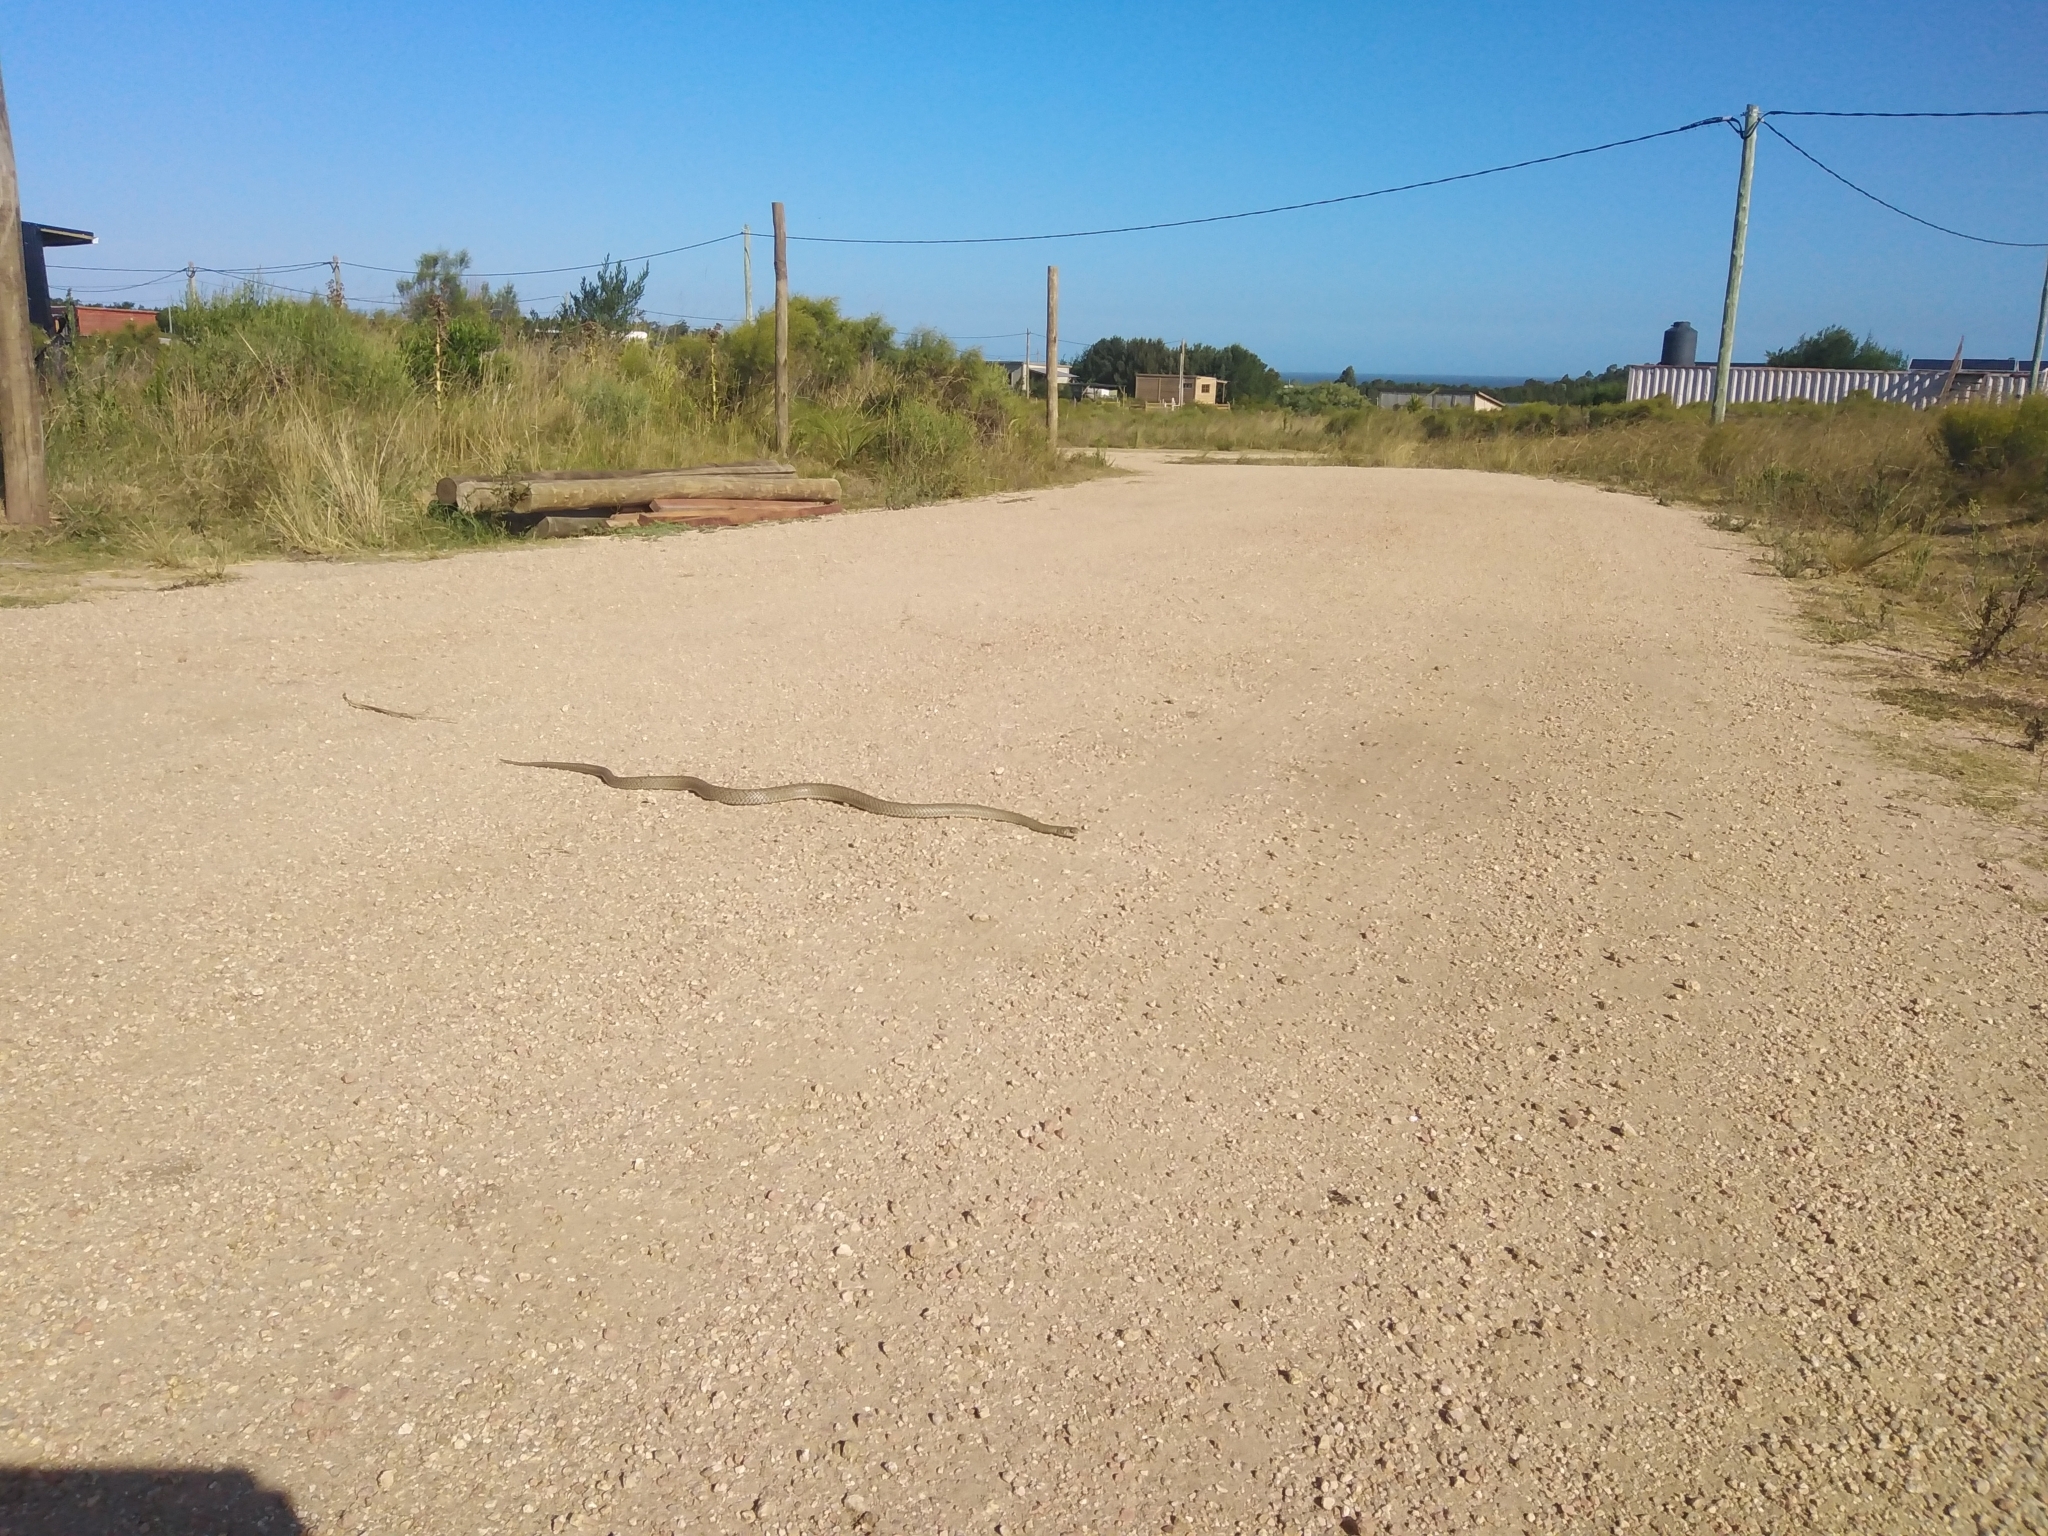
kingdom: Animalia
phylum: Chordata
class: Squamata
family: Colubridae
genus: Philodryas
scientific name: Philodryas patagoniensis
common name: Patagonia green racer
